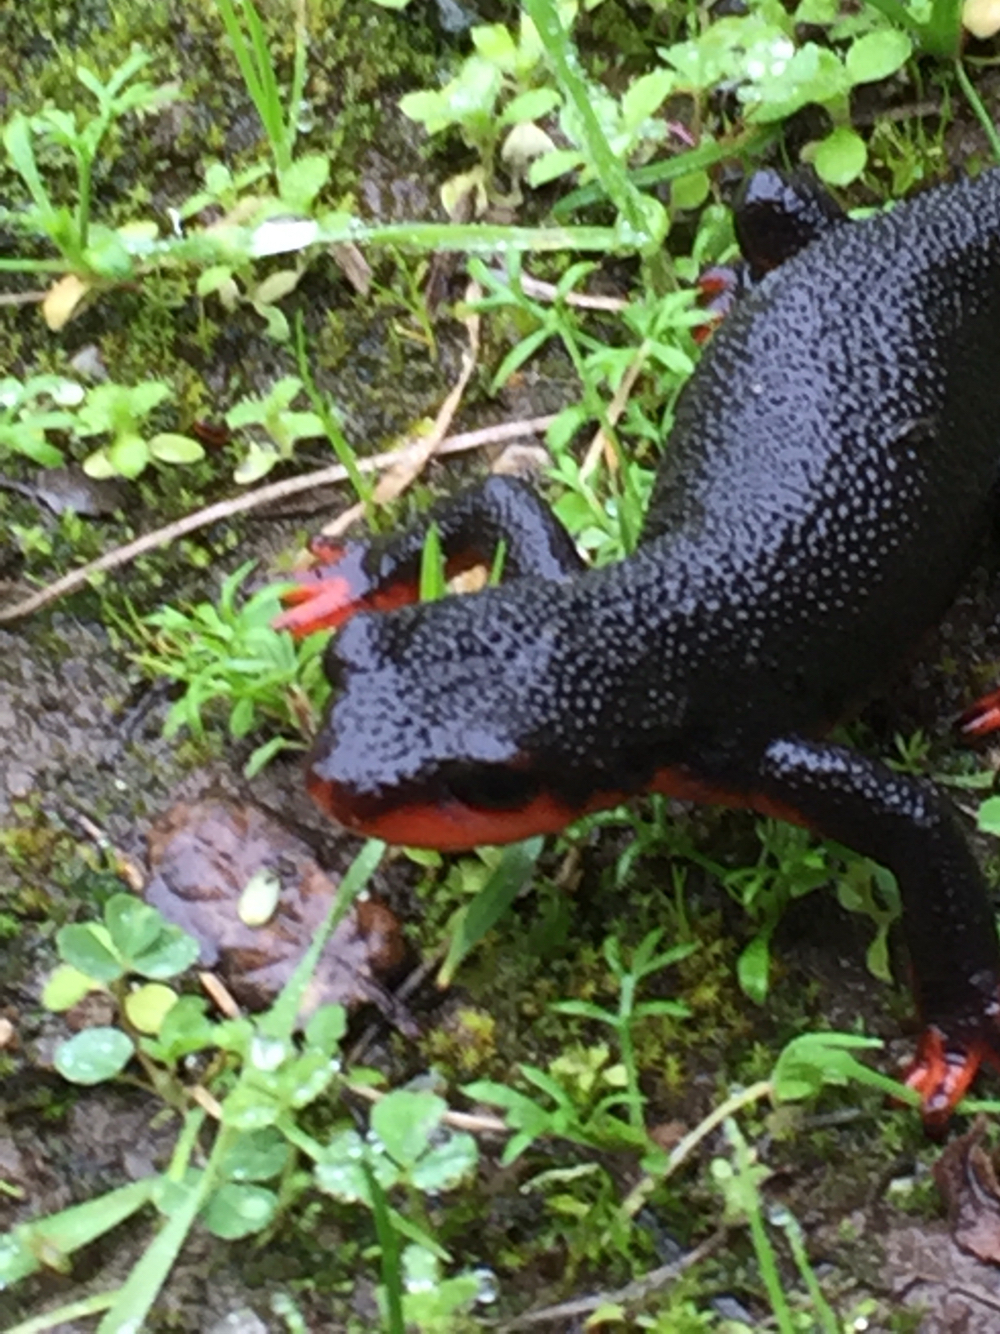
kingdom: Animalia
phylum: Chordata
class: Amphibia
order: Caudata
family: Salamandridae
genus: Taricha
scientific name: Taricha rivularis
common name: Red-bellied newt
